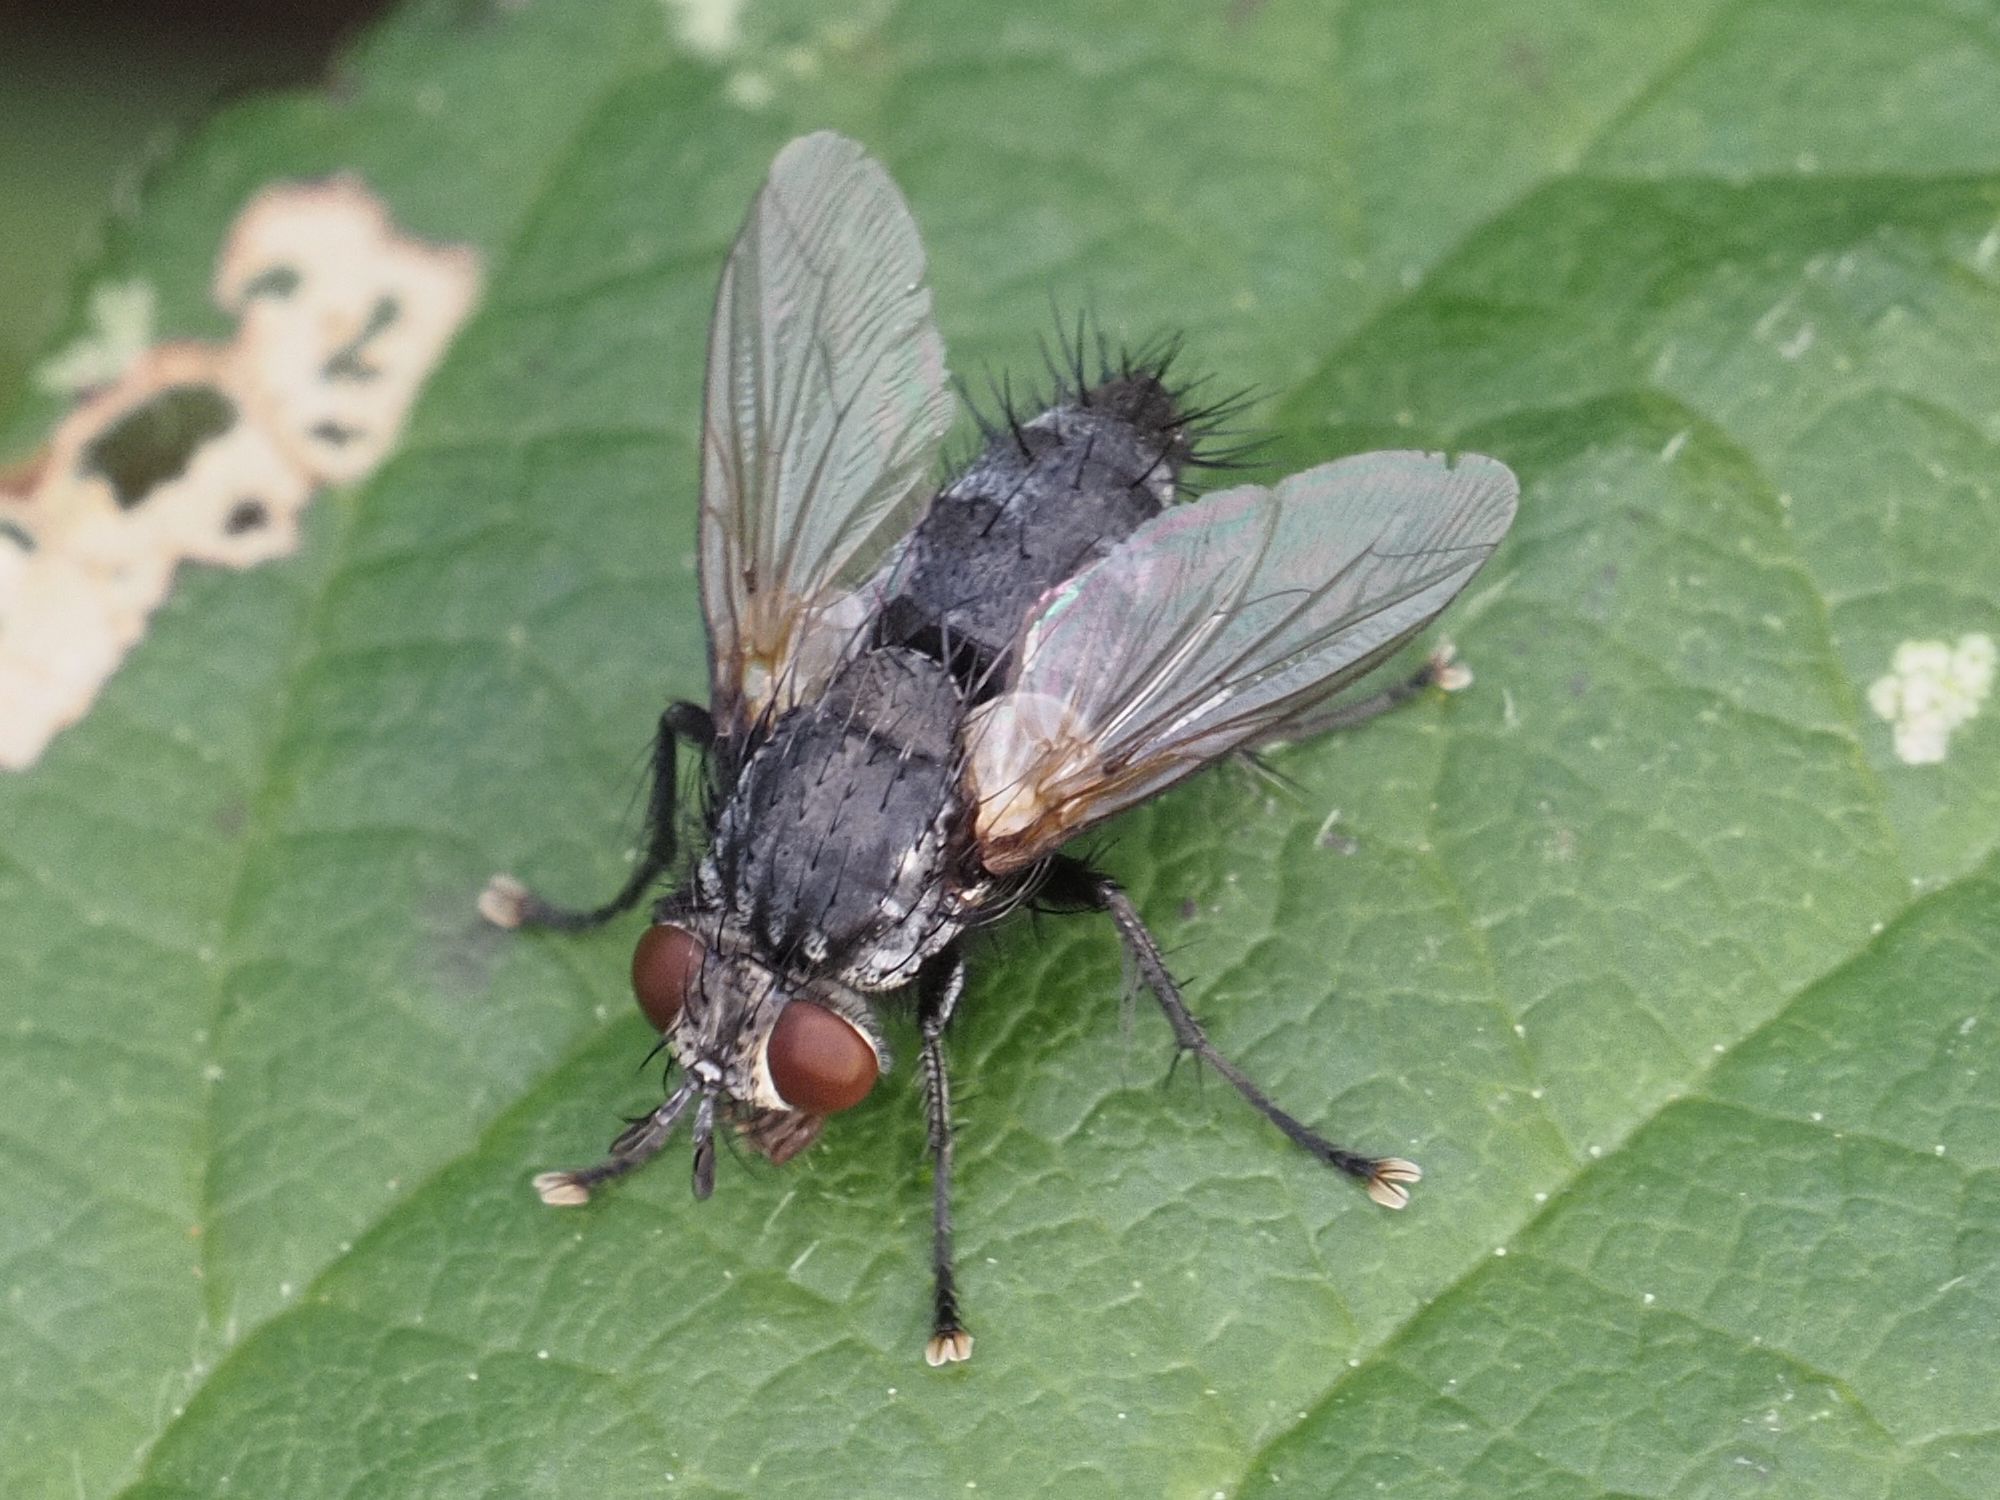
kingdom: Animalia
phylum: Arthropoda
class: Insecta
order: Diptera
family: Tachinidae
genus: Voria
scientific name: Voria ruralis
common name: Parasitic fly
